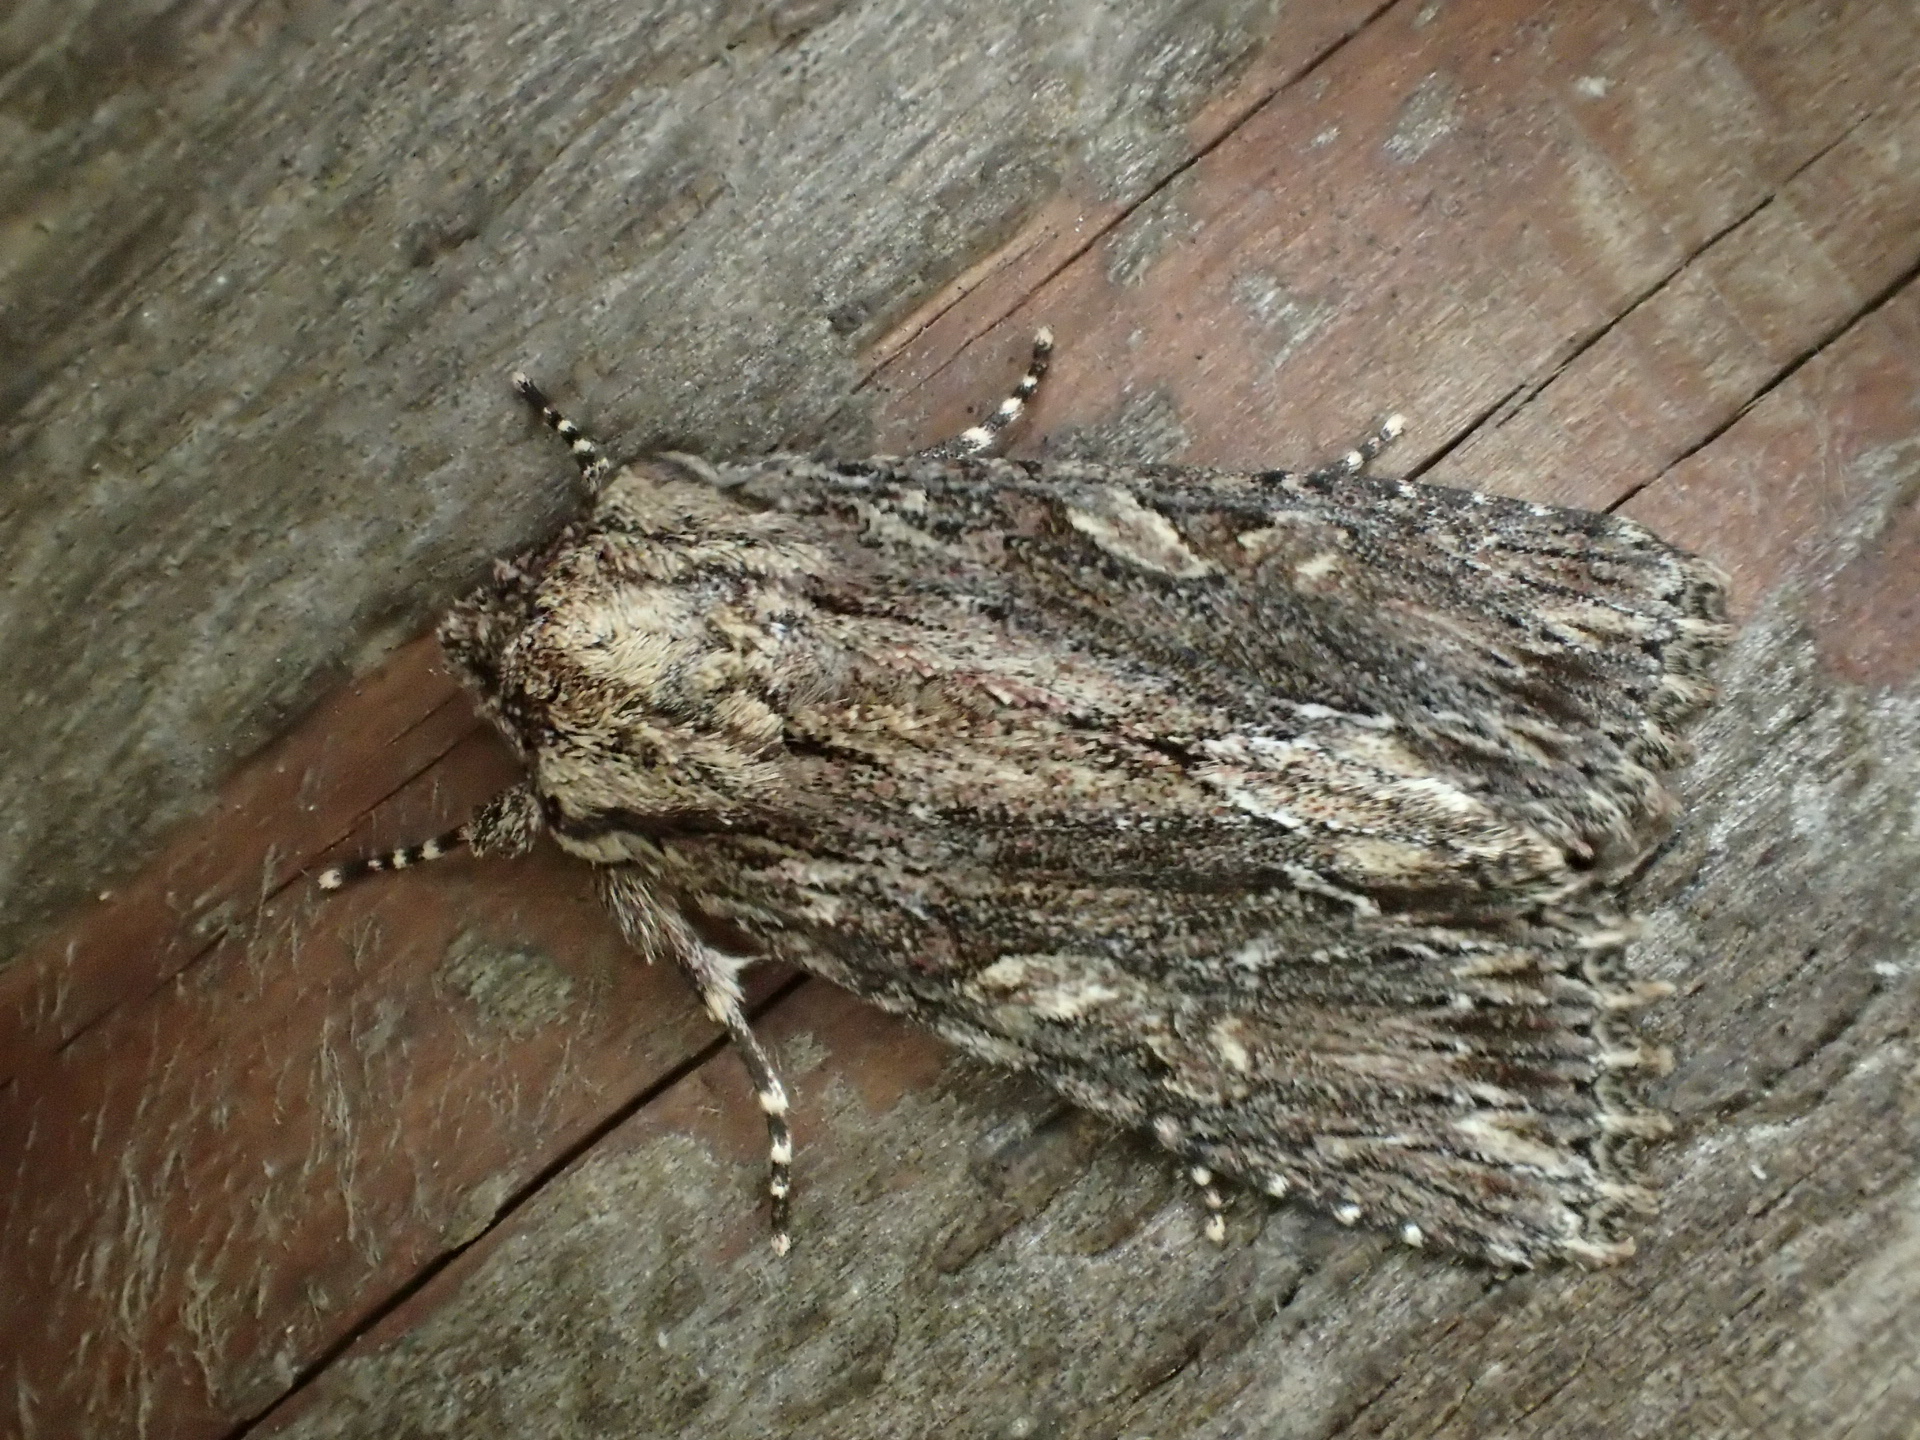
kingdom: Animalia
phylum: Arthropoda
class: Insecta
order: Lepidoptera
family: Noctuidae
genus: Achatia
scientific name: Achatia confusa
